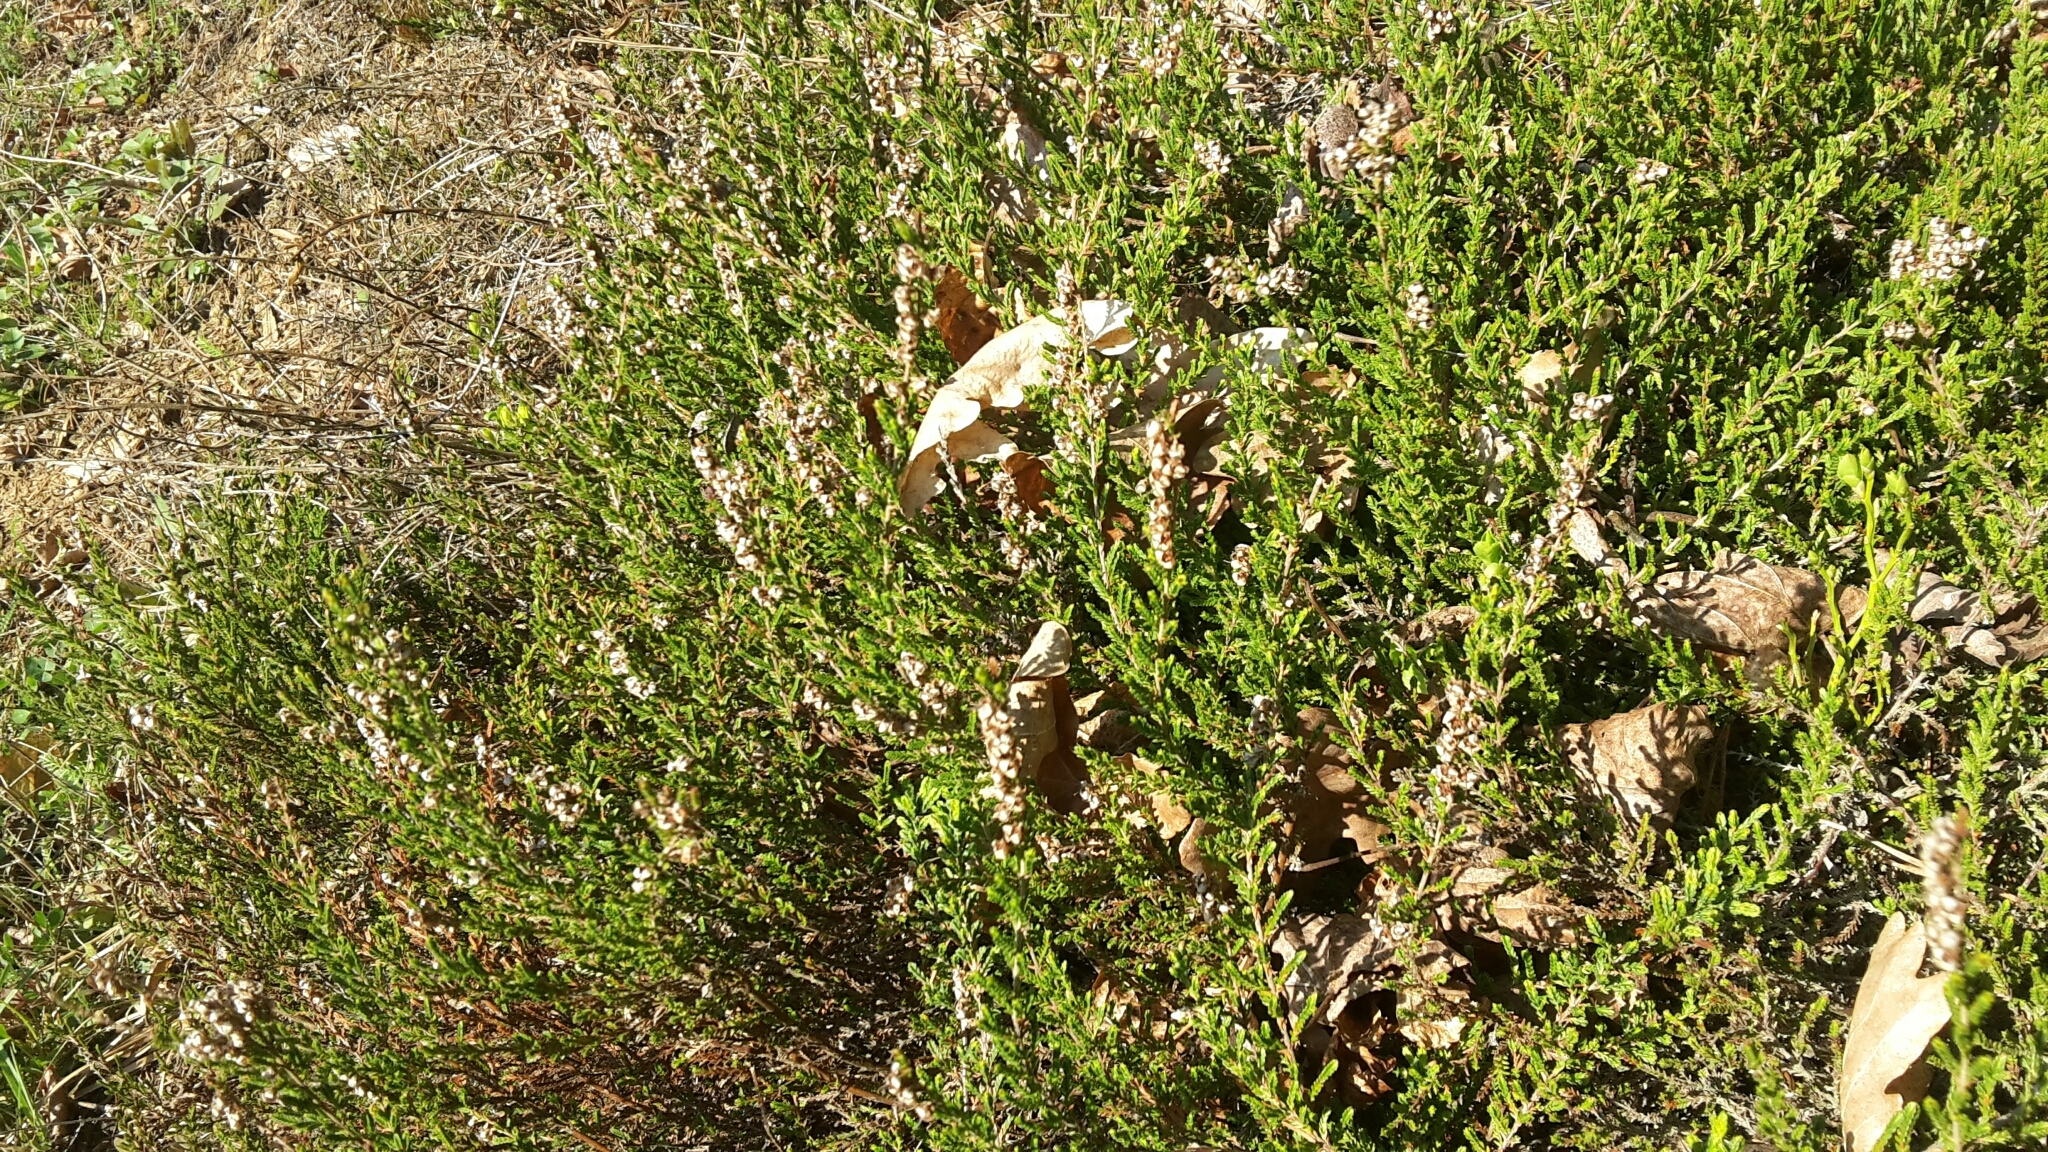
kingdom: Plantae
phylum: Tracheophyta
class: Magnoliopsida
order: Ericales
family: Ericaceae
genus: Calluna
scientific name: Calluna vulgaris
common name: Heather
